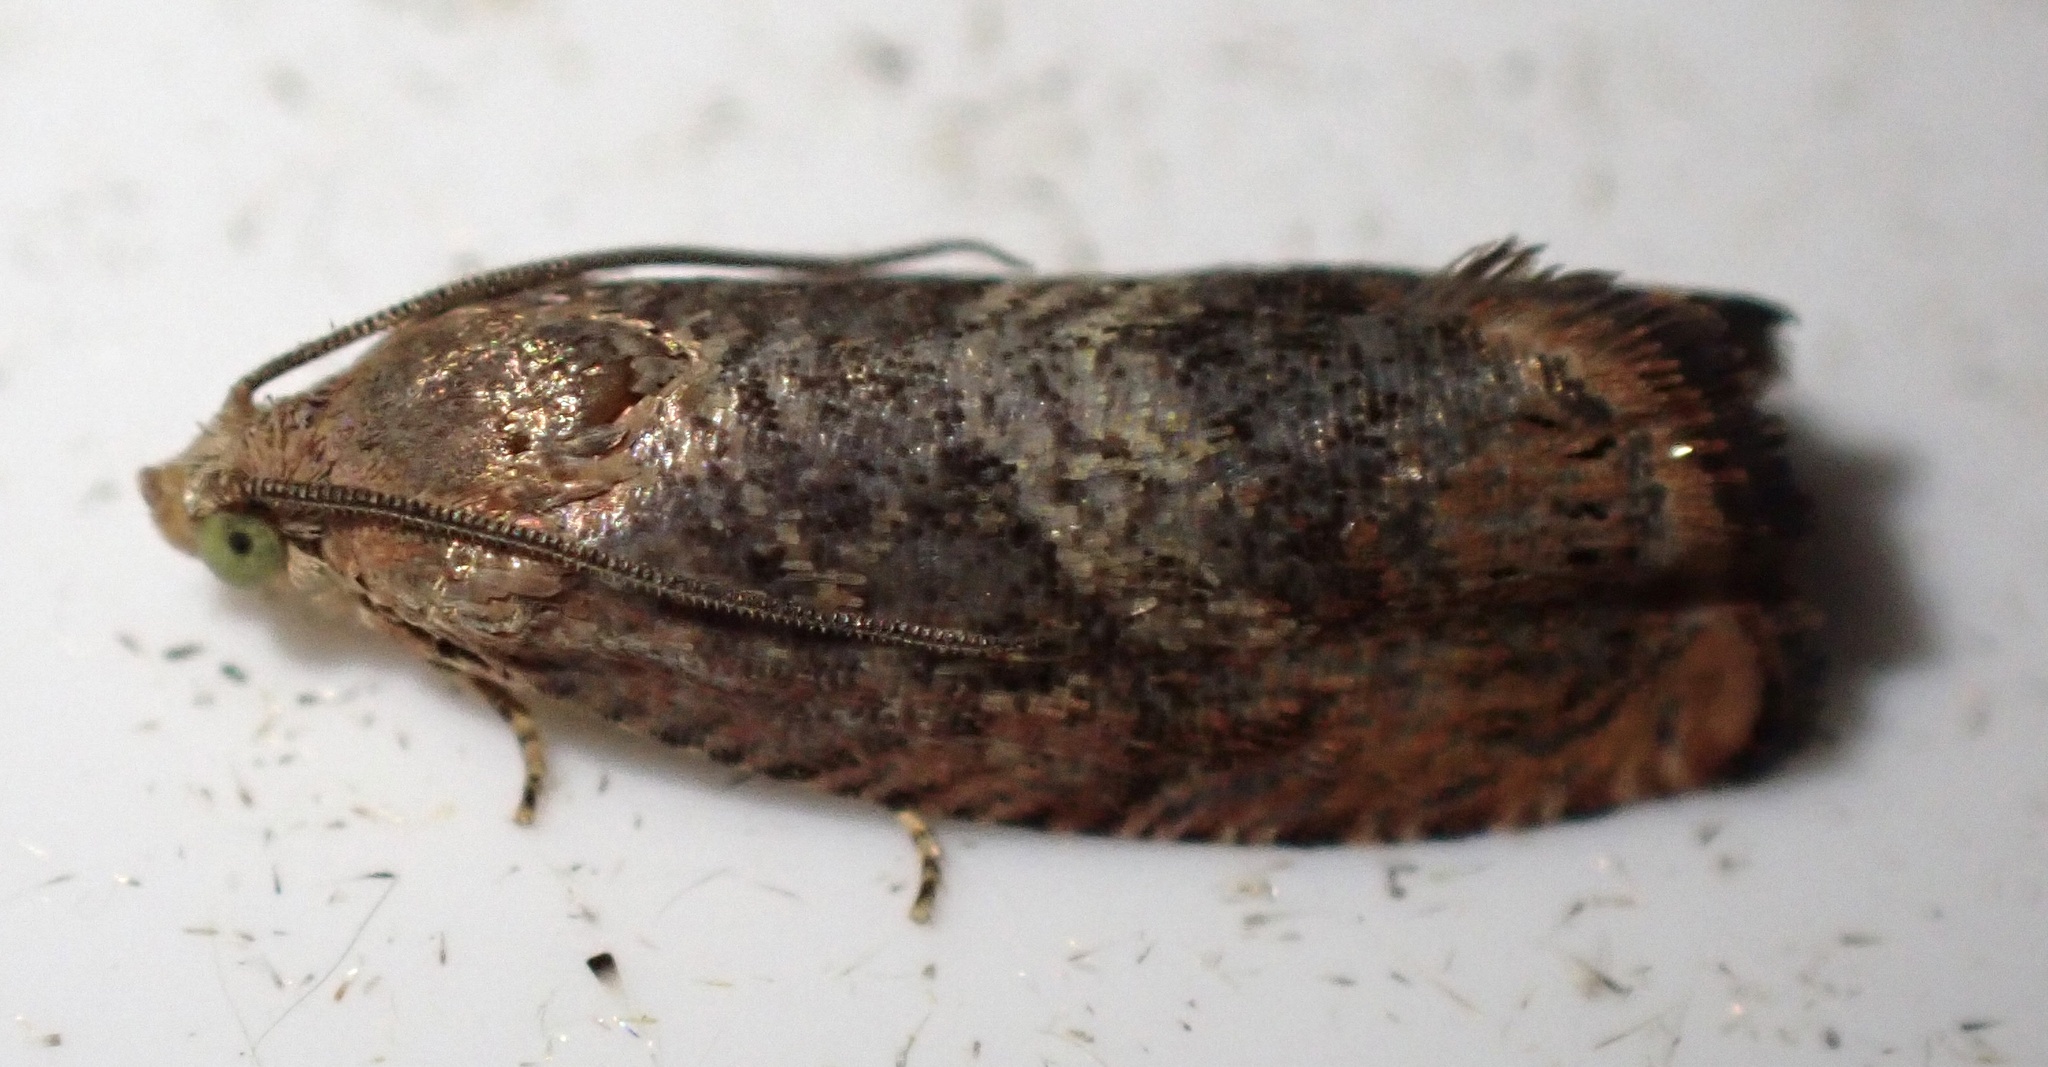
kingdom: Animalia
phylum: Arthropoda
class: Insecta
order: Lepidoptera
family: Tortricidae
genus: Cydia
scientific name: Cydia amplana
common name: Vagrant piercer
